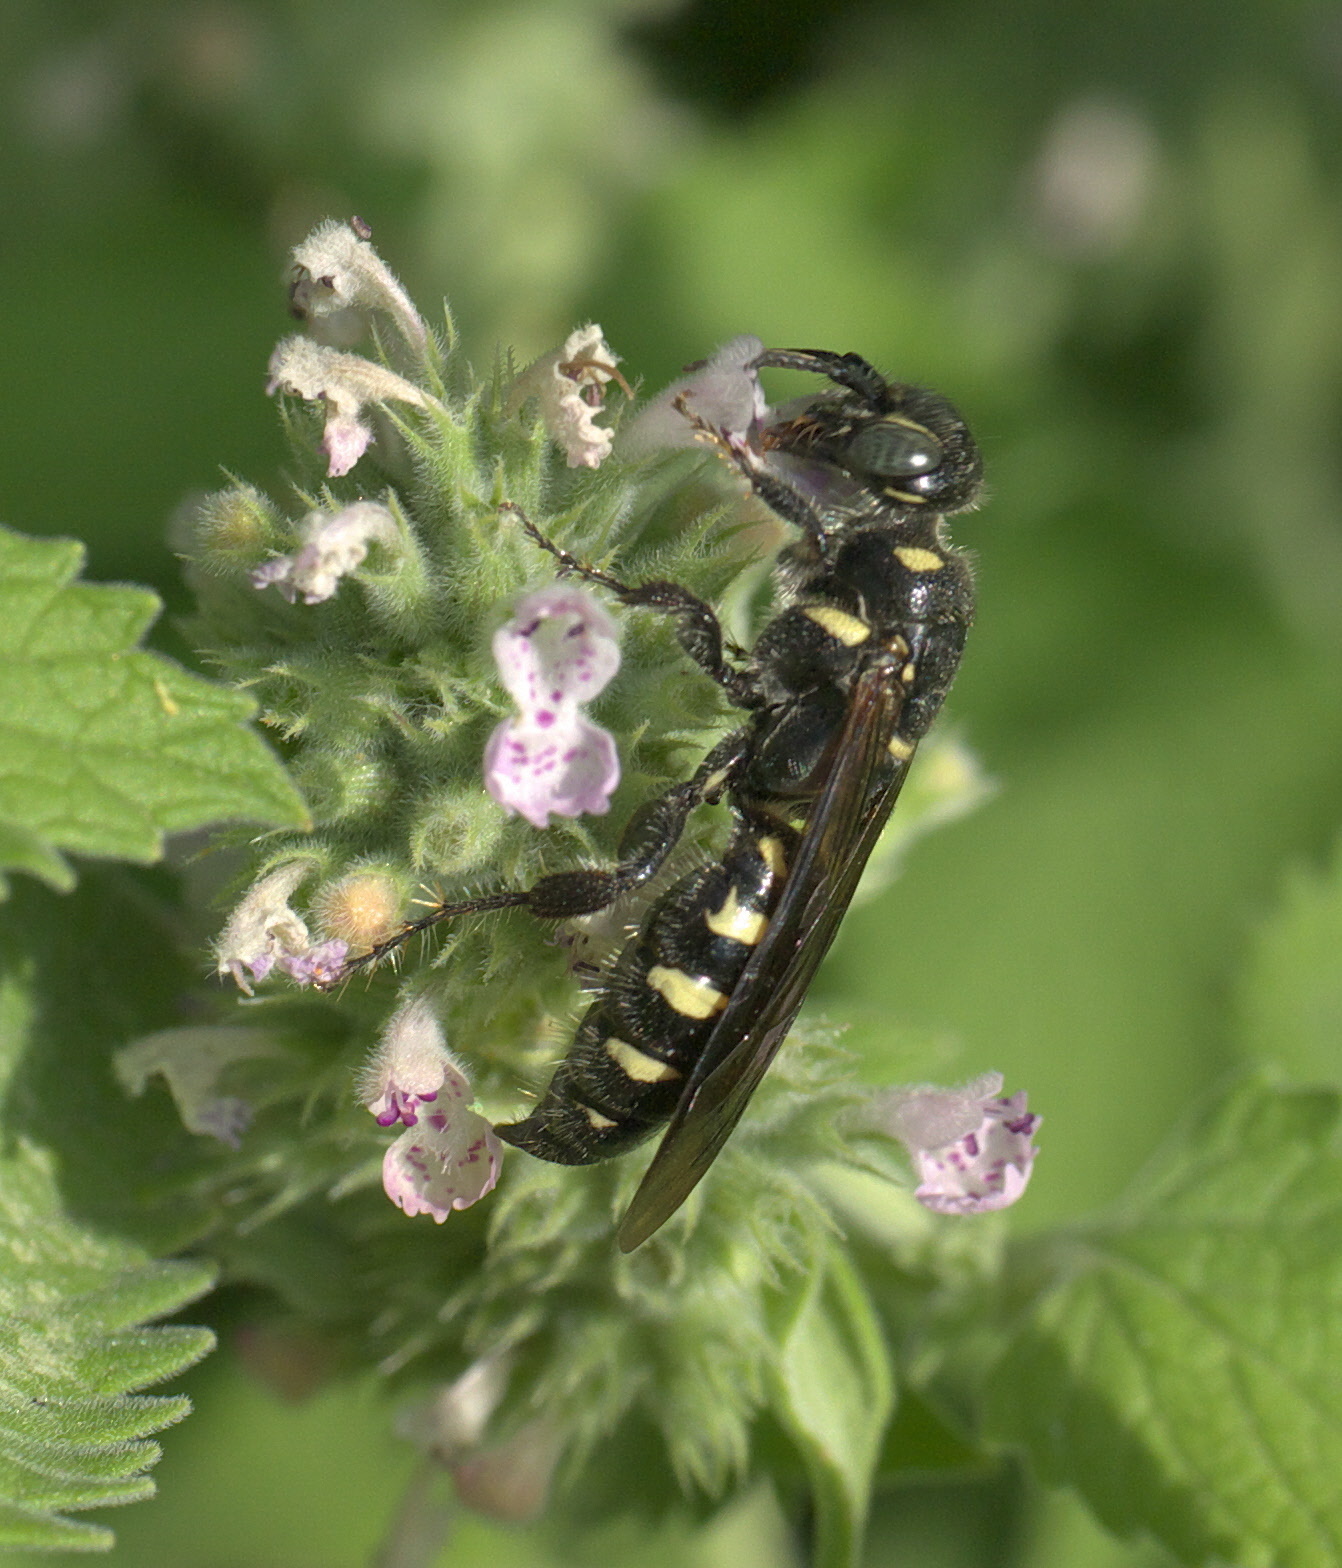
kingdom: Animalia
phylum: Arthropoda
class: Insecta
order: Hymenoptera
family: Tiphiidae
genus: Myzinum
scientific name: Myzinum obscurum
